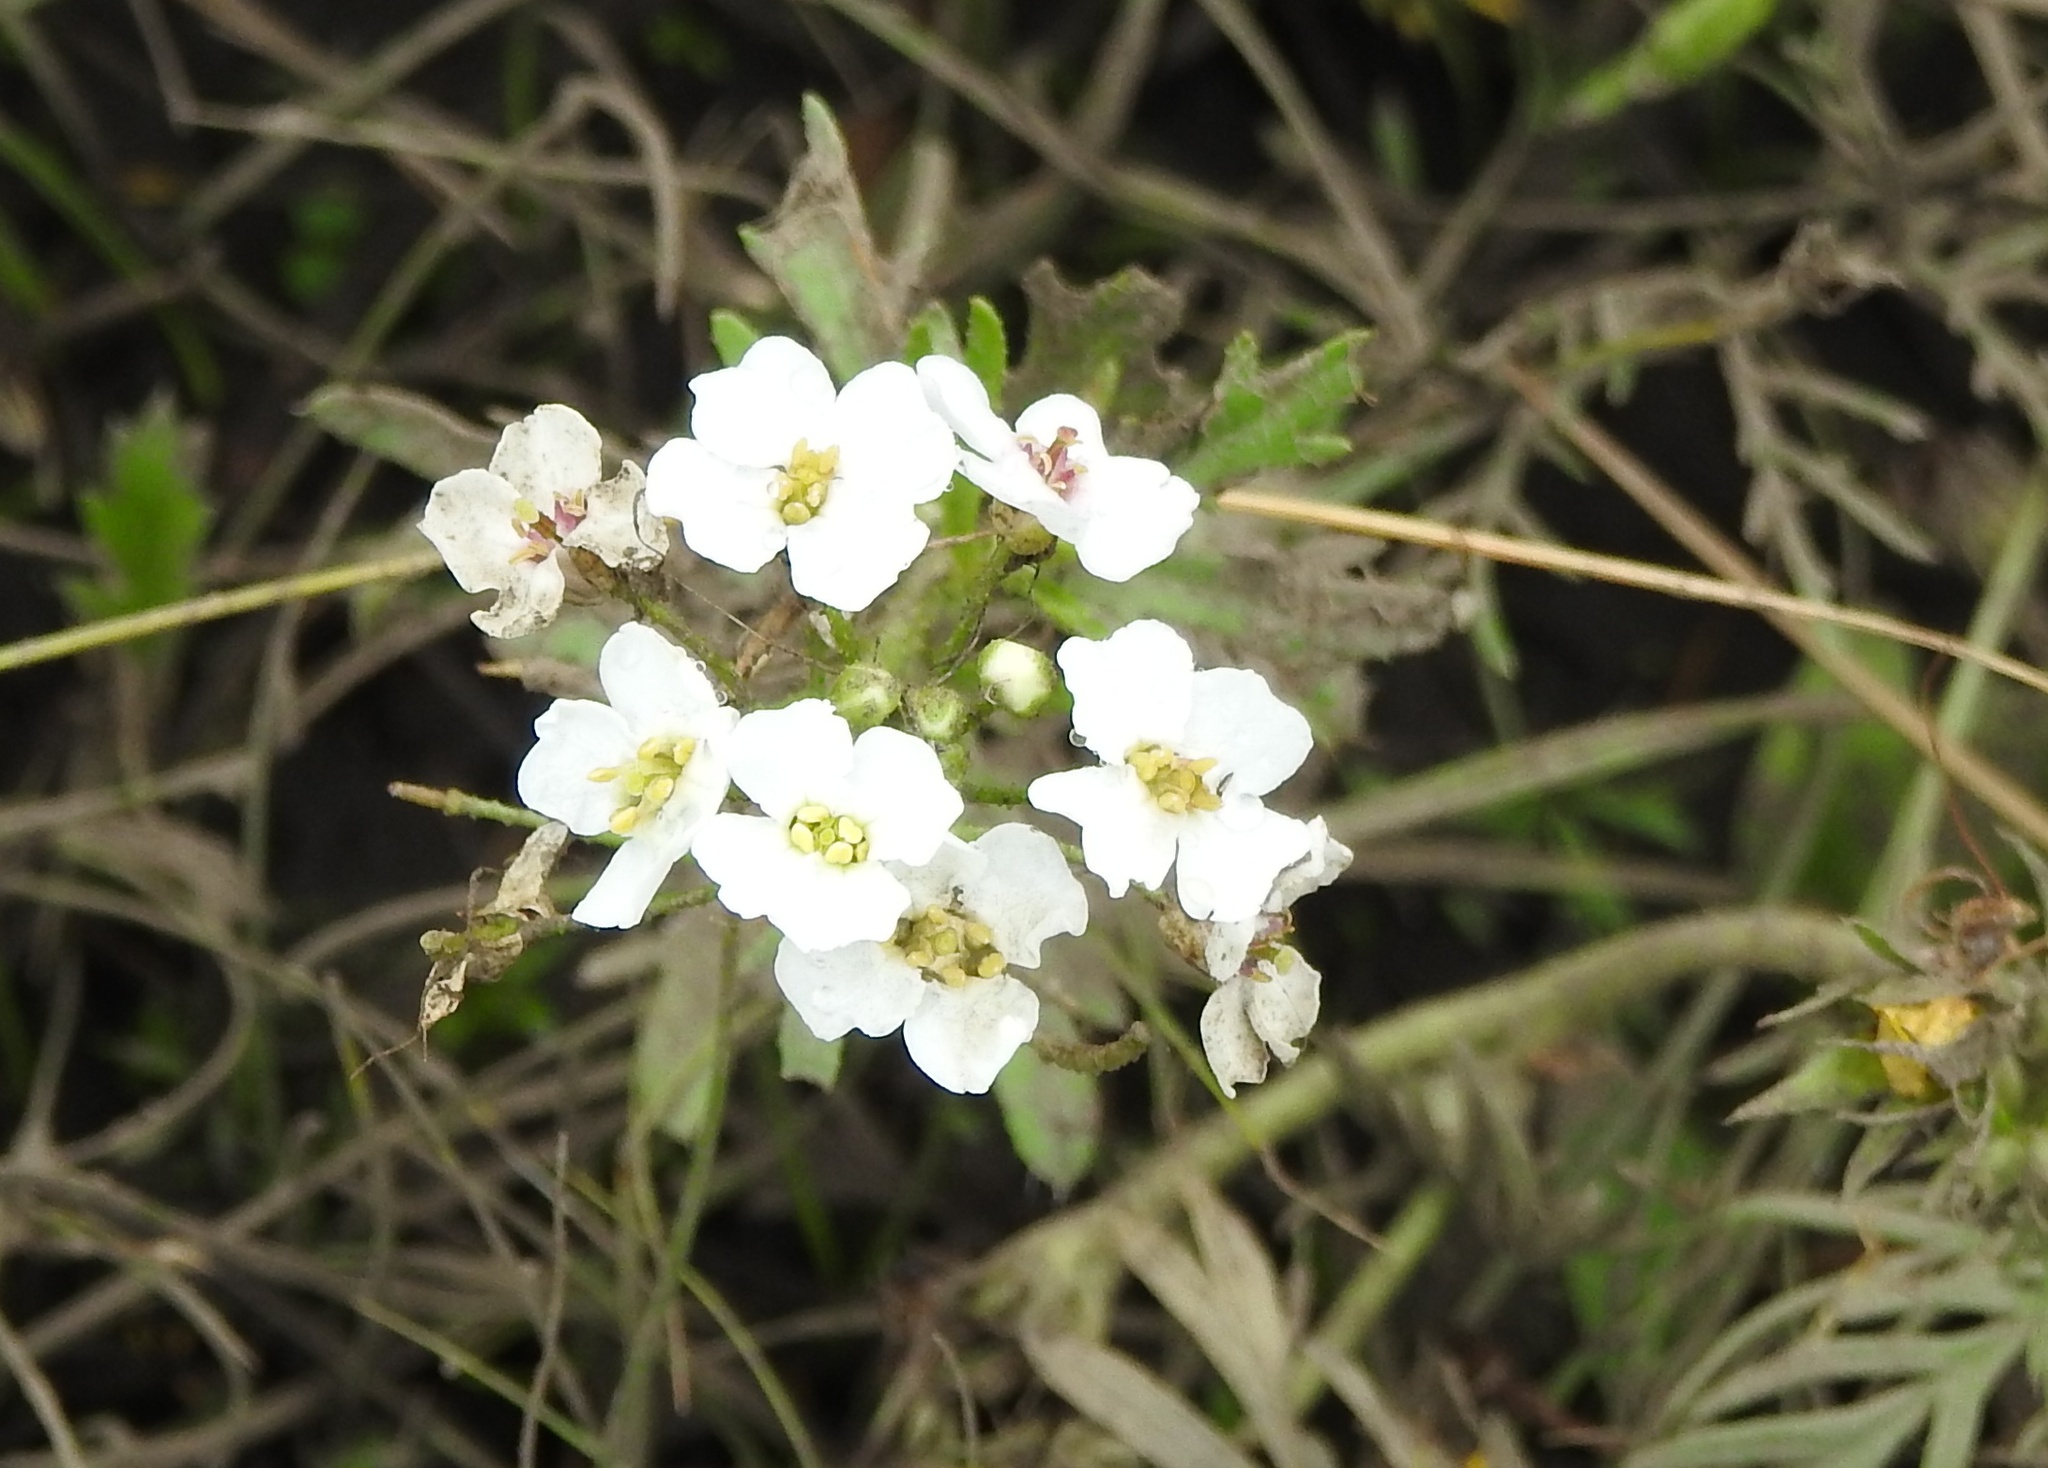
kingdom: Plantae
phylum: Tracheophyta
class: Magnoliopsida
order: Brassicales
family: Brassicaceae
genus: Dontostemon
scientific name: Dontostemon pinnatifidus
